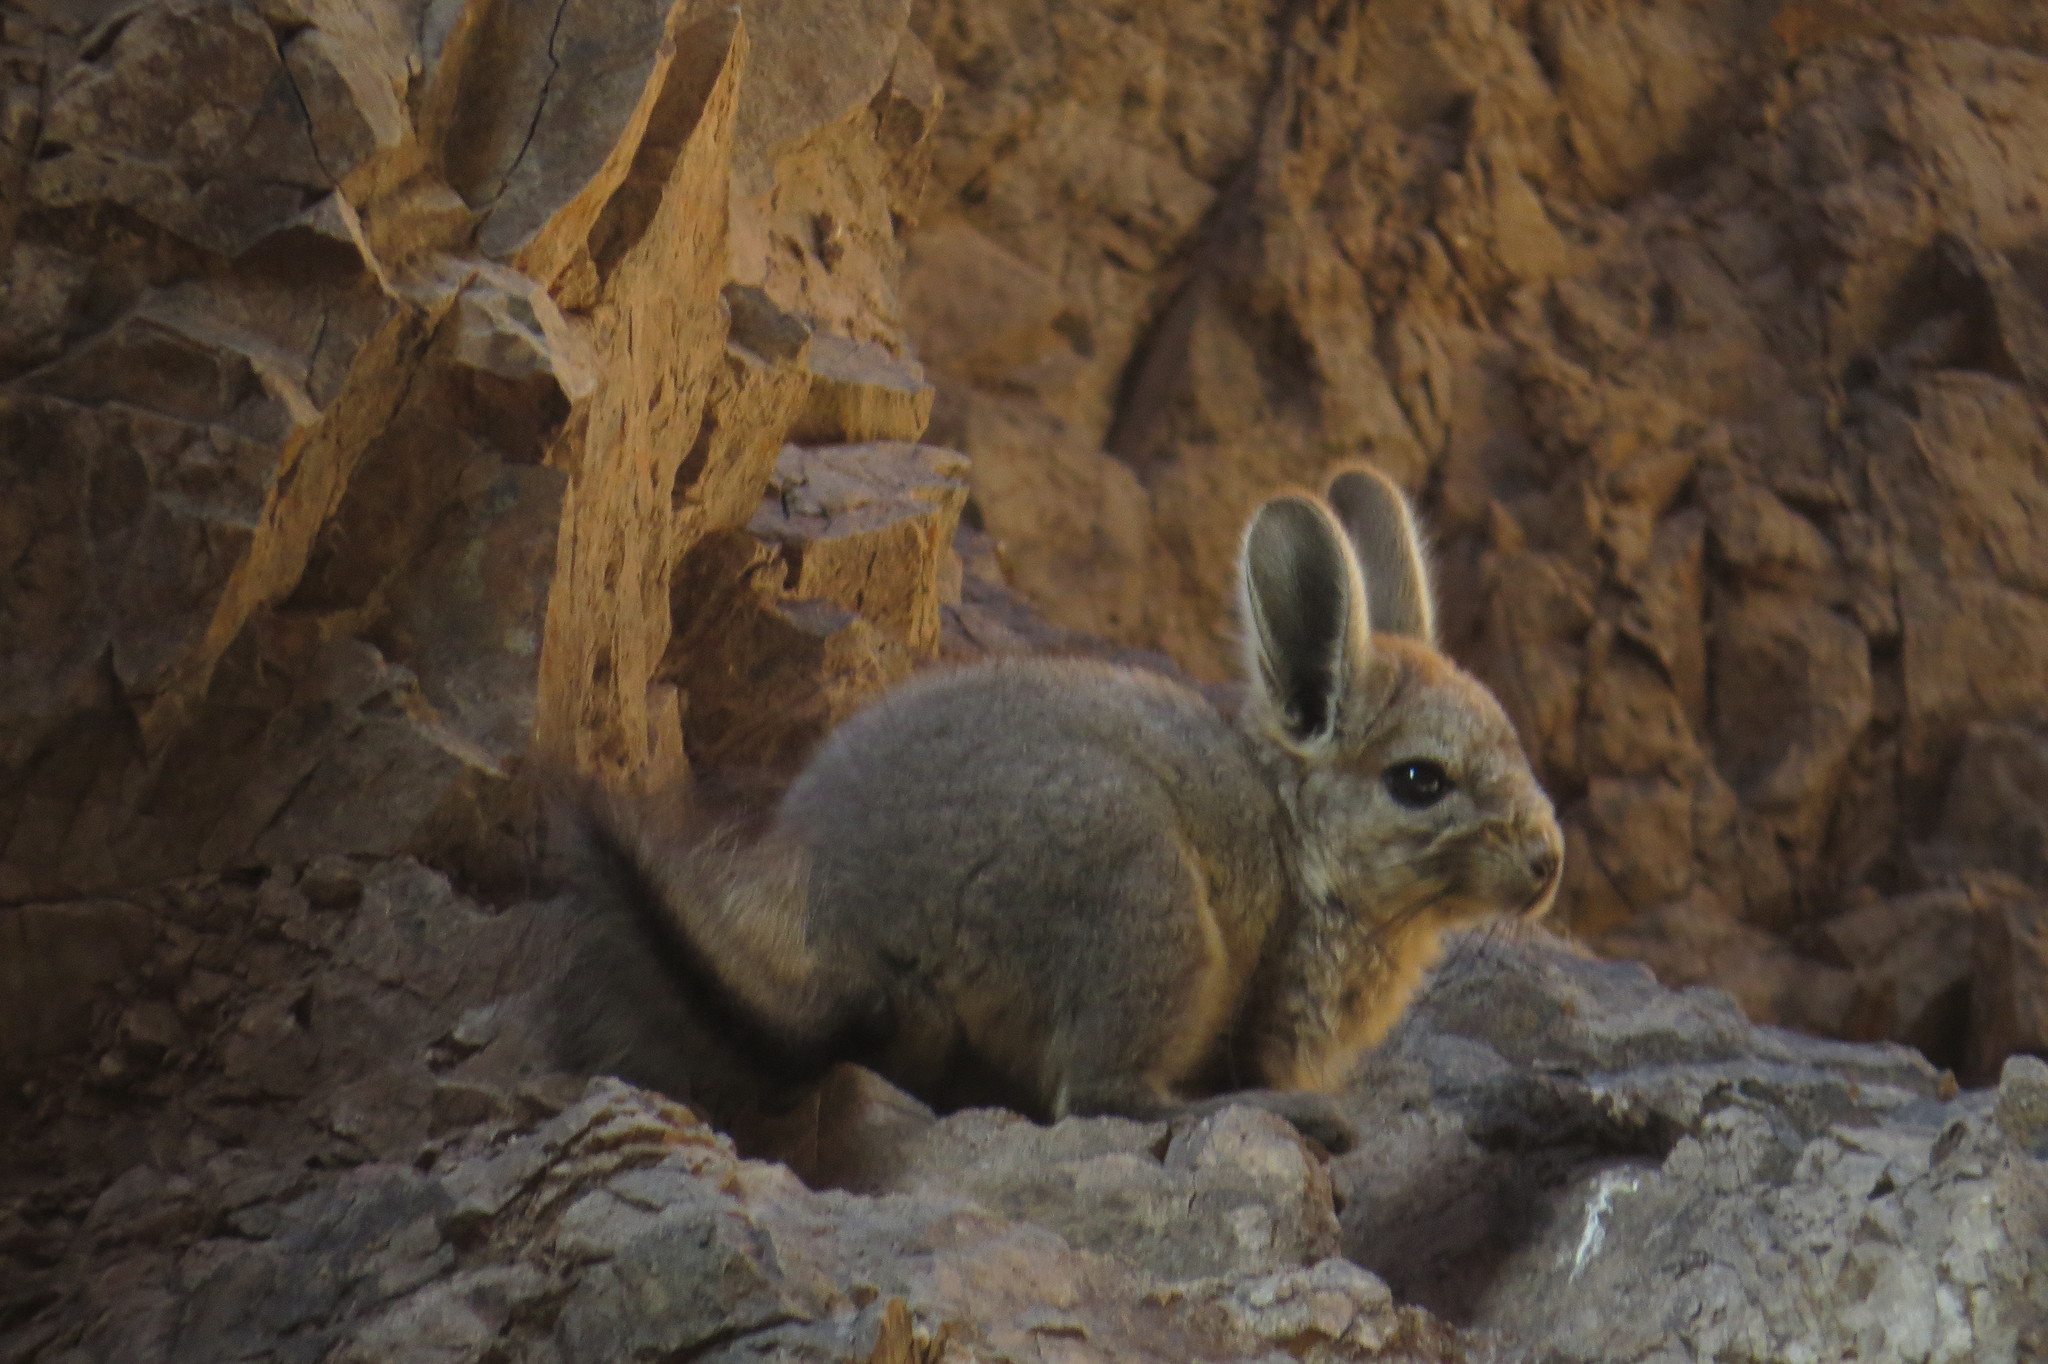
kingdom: Animalia
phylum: Chordata
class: Mammalia
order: Rodentia
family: Chinchillidae
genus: Lagidium
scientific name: Lagidium viscacia
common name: Southern viscacha
